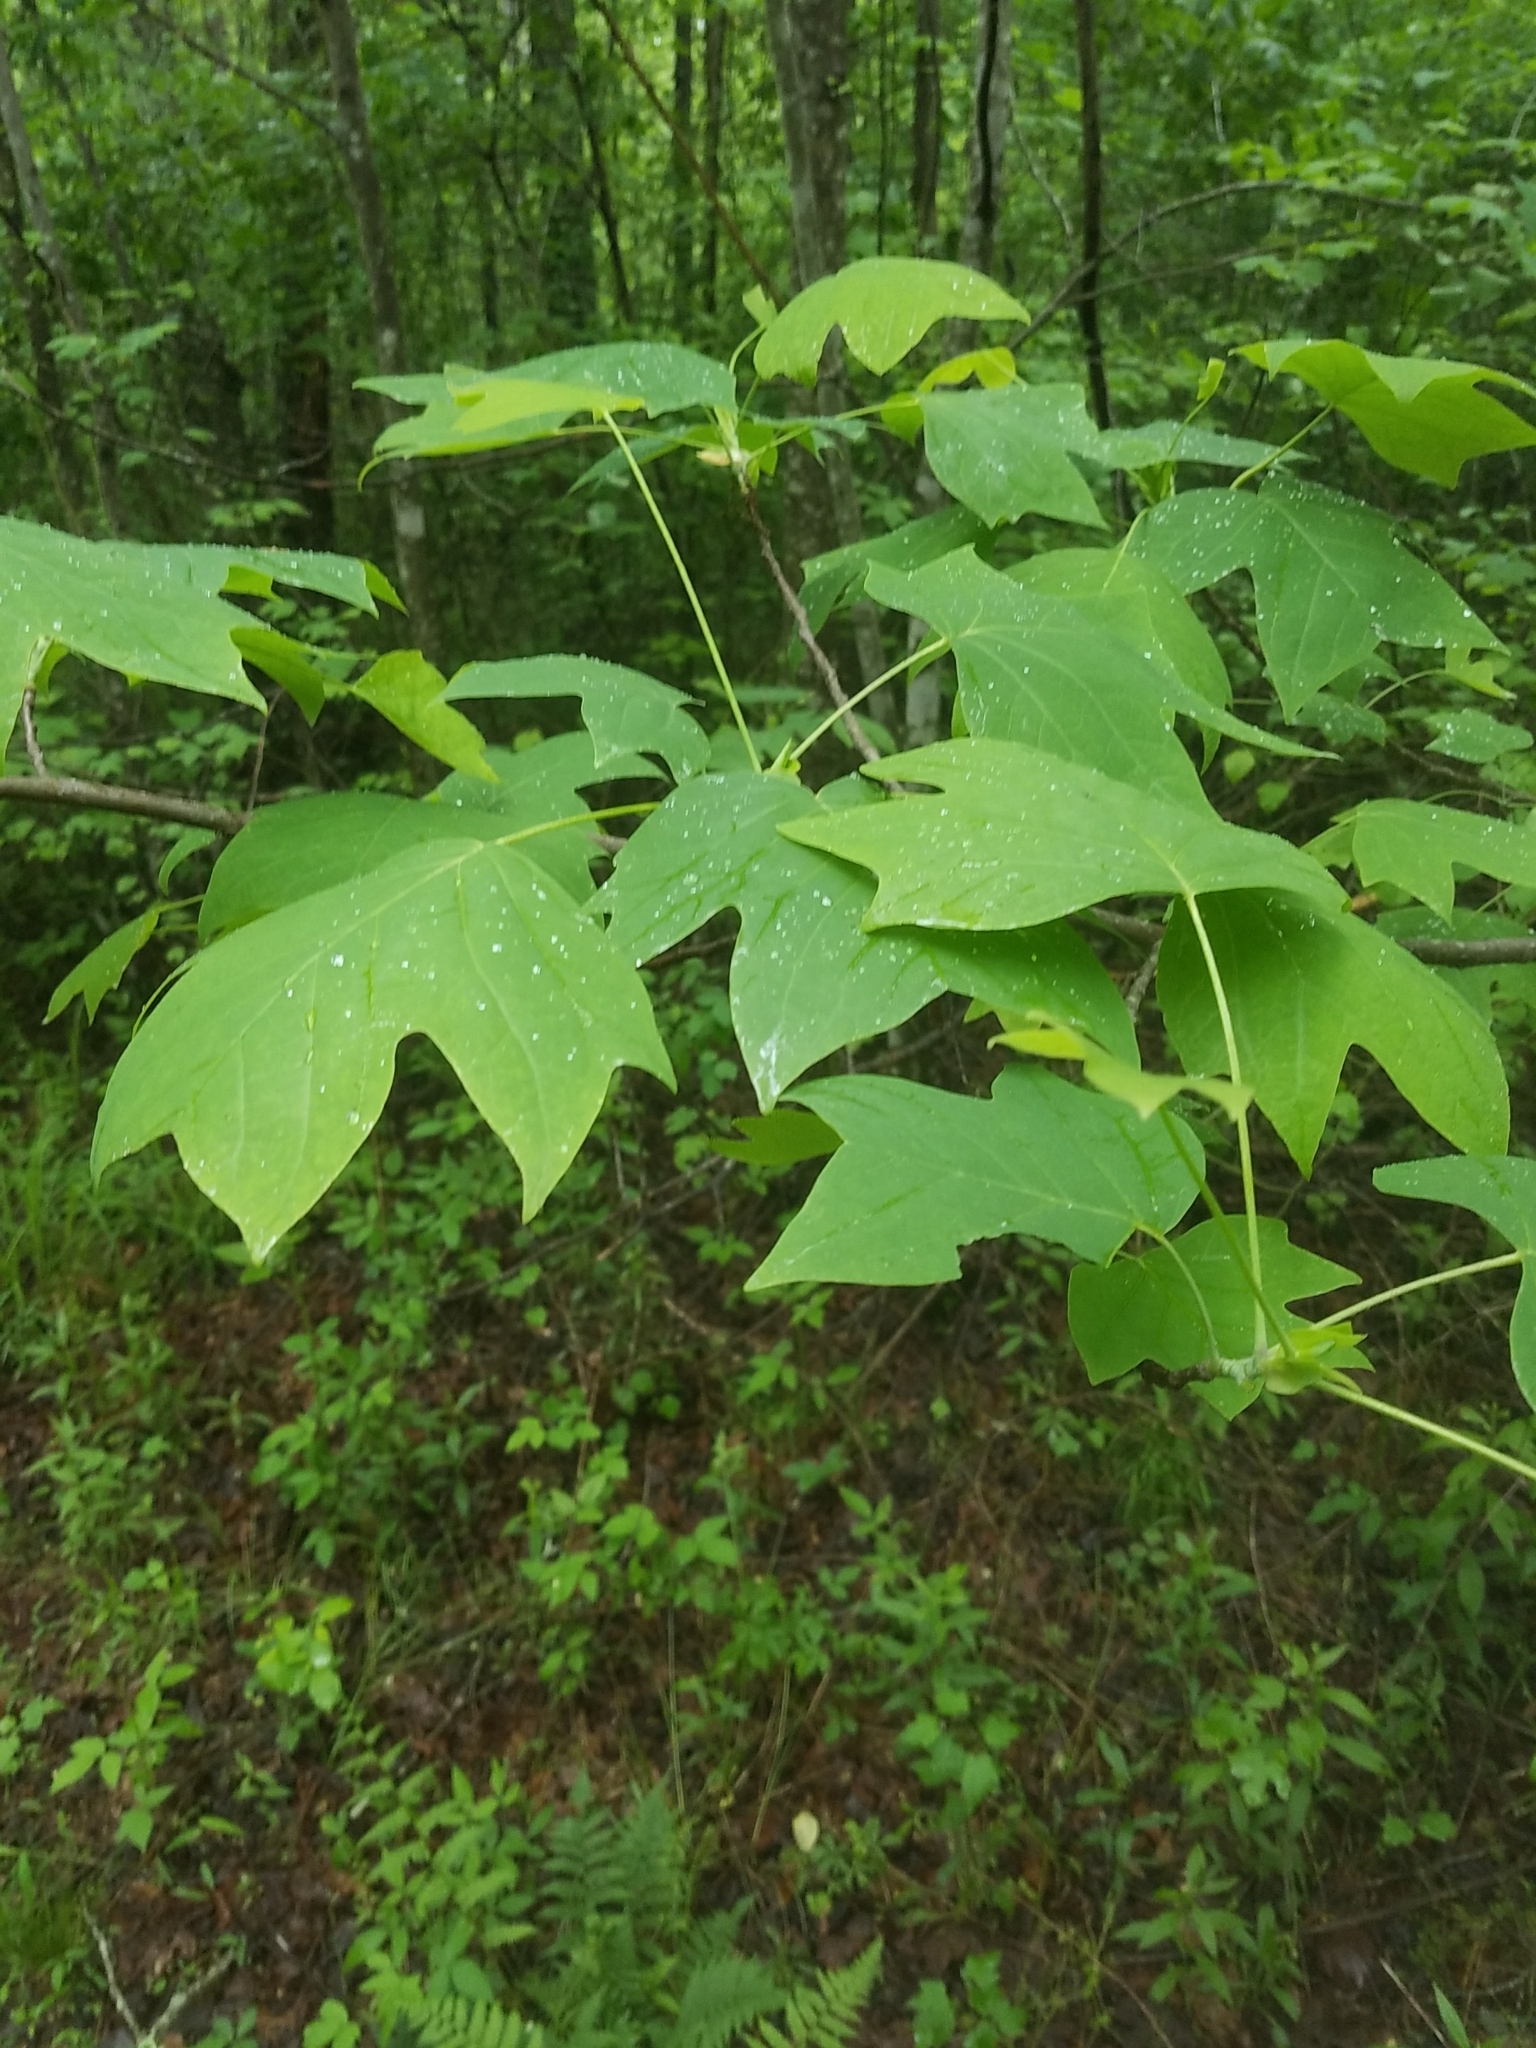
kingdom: Plantae
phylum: Tracheophyta
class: Magnoliopsida
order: Magnoliales
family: Magnoliaceae
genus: Liriodendron
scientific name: Liriodendron tulipifera
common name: Tulip tree
